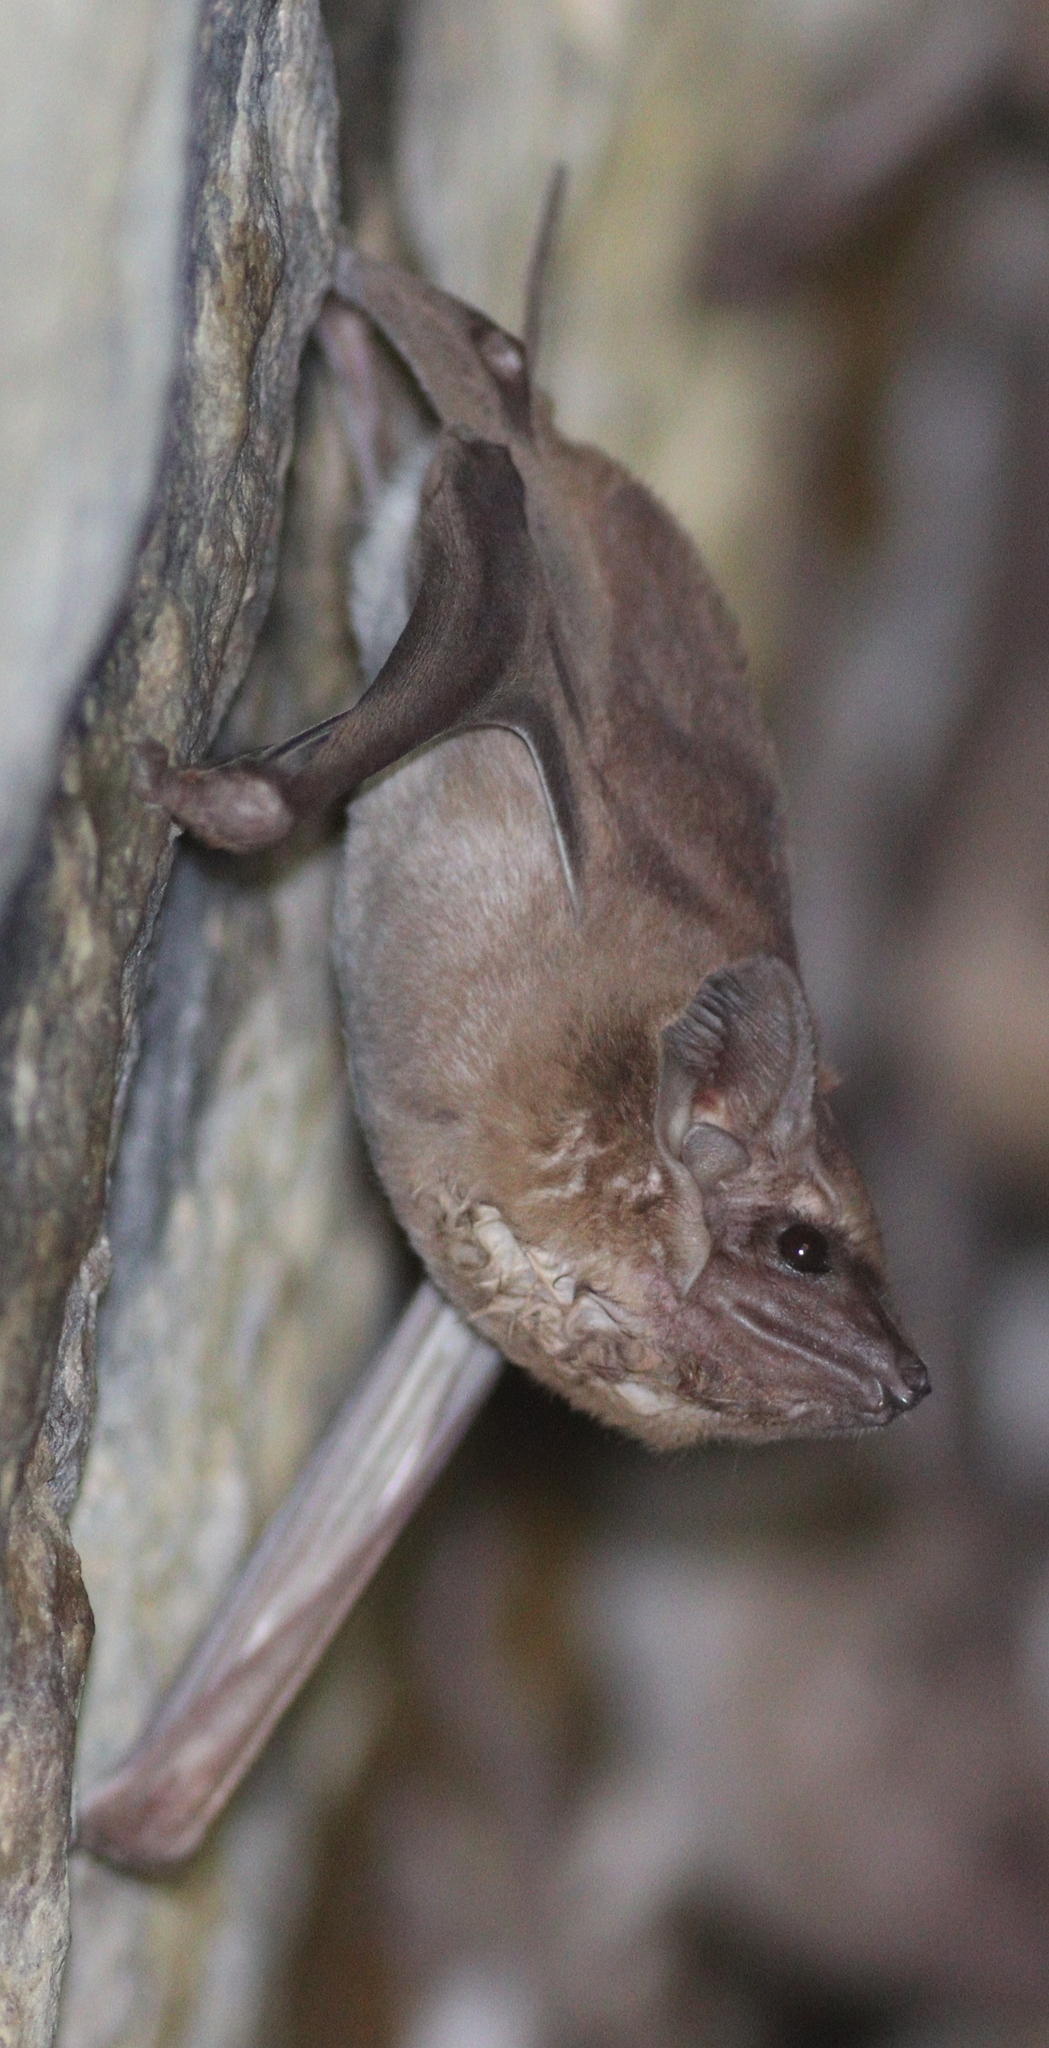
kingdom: Animalia
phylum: Chordata
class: Mammalia
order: Chiroptera
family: Emballonuridae
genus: Taphozous
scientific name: Taphozous perforatus
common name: Egyptian tomb bat
